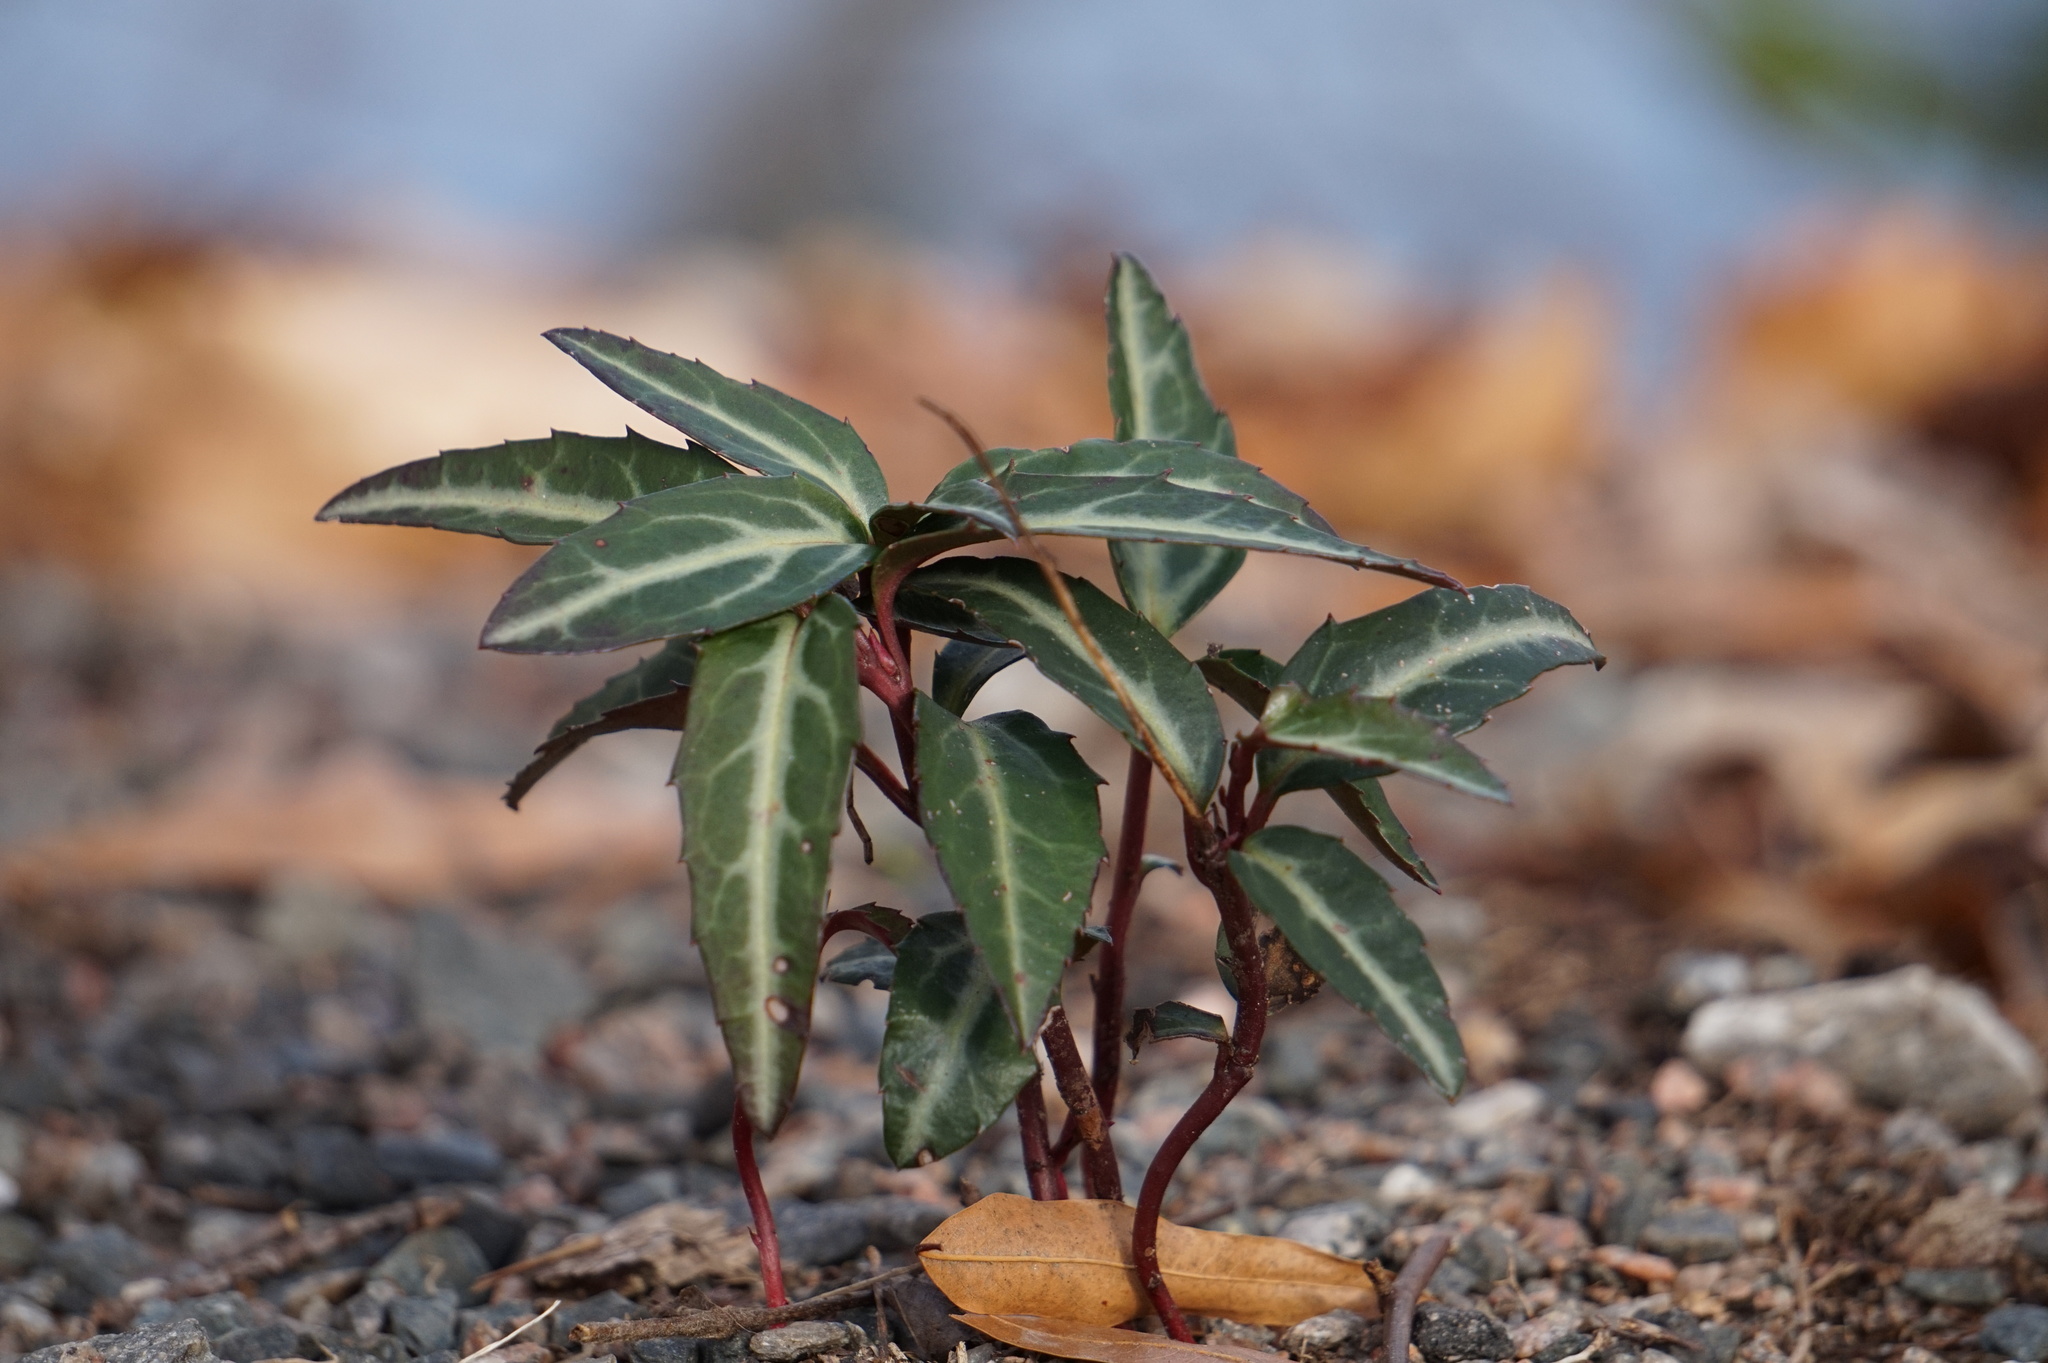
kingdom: Plantae
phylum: Tracheophyta
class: Magnoliopsida
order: Ericales
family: Ericaceae
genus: Chimaphila
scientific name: Chimaphila maculata
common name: Spotted pipsissewa
